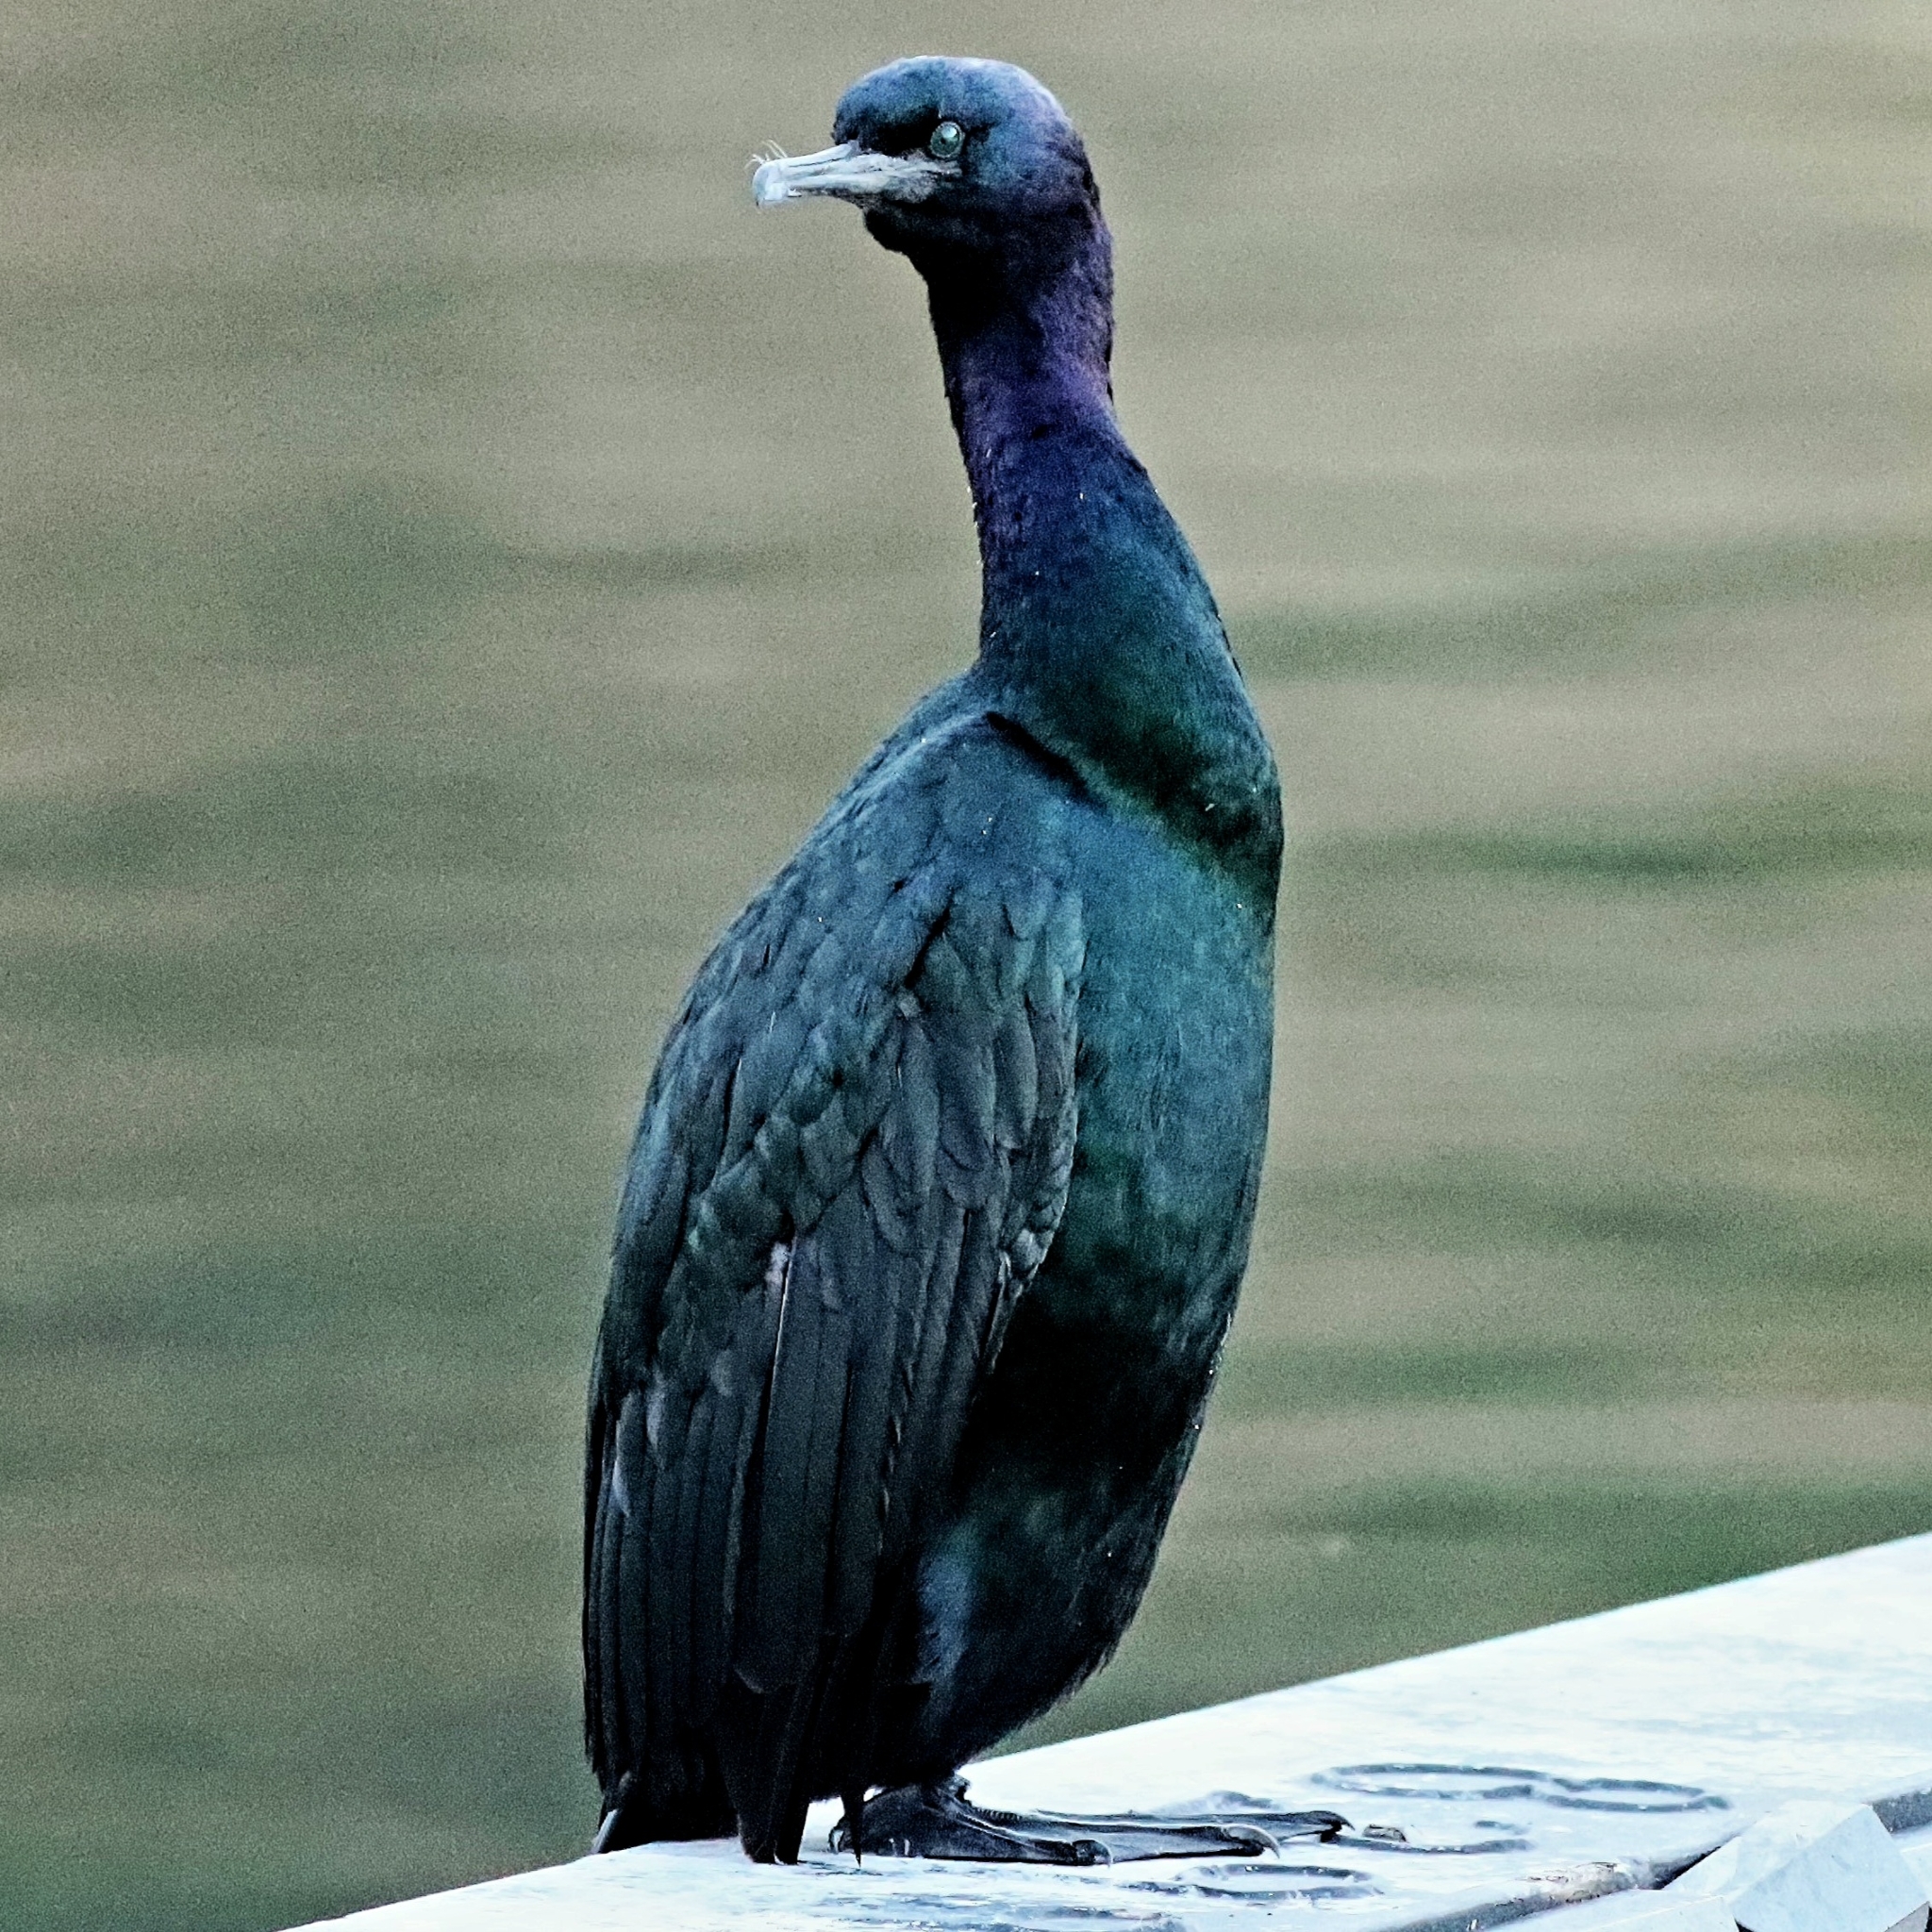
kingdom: Animalia
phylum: Chordata
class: Aves
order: Suliformes
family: Phalacrocoracidae
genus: Phalacrocorax
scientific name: Phalacrocorax pelagicus
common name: Pelagic cormorant
